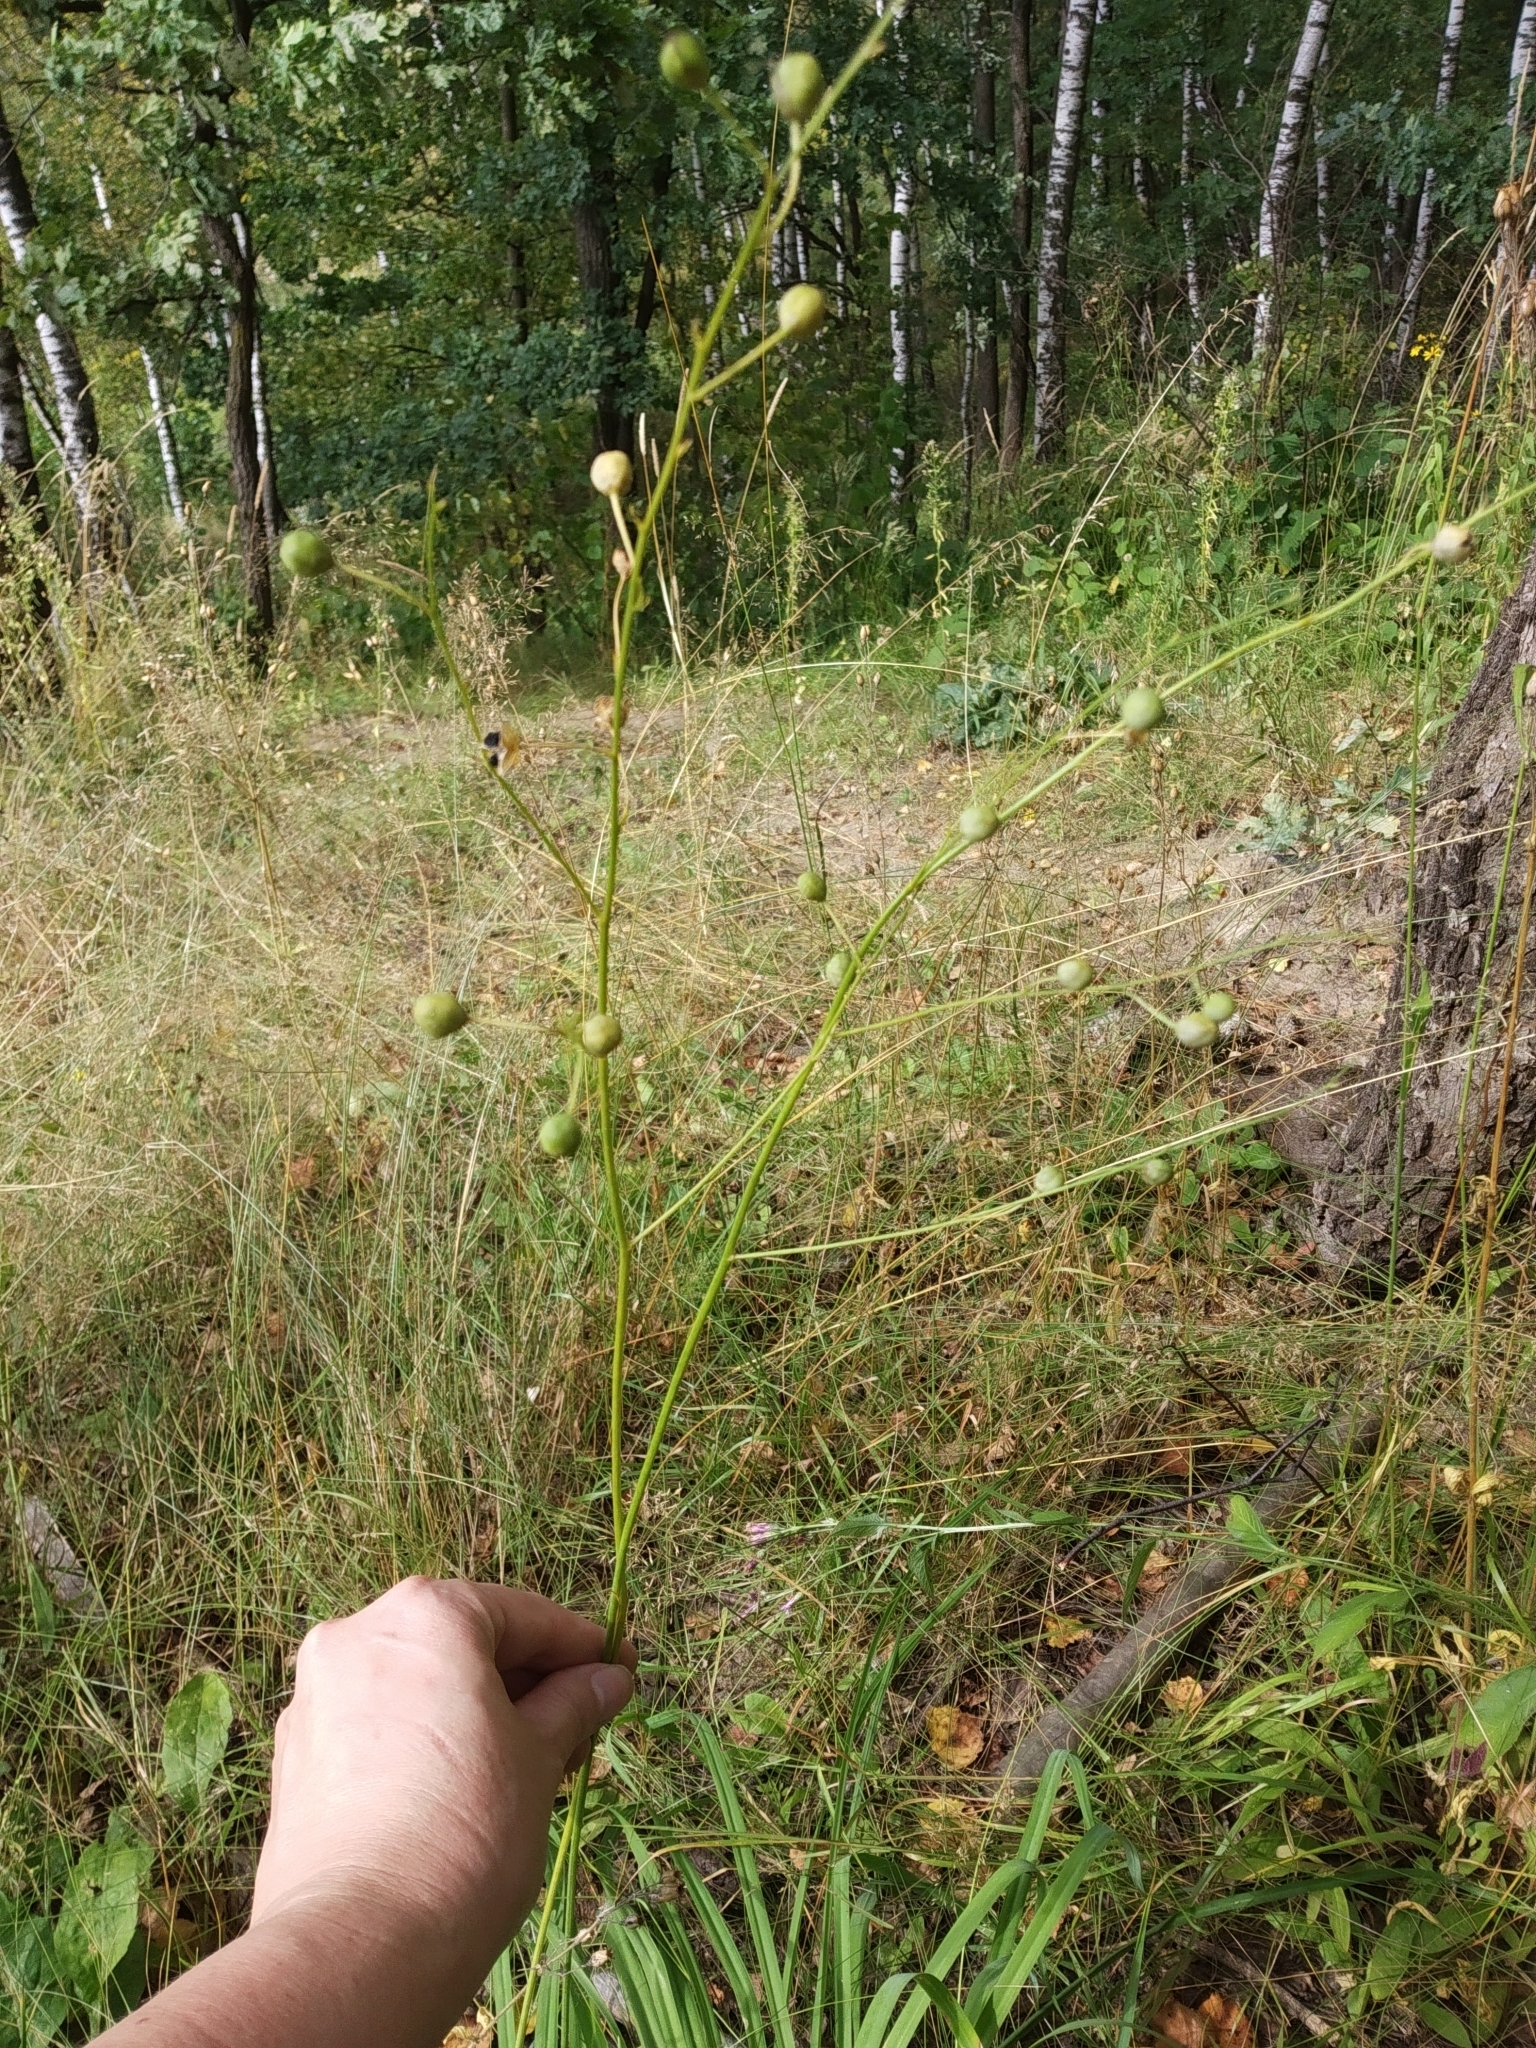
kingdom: Plantae
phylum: Tracheophyta
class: Liliopsida
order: Asparagales
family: Asparagaceae
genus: Anthericum
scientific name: Anthericum ramosum
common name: Branched st. bernard's-lily
